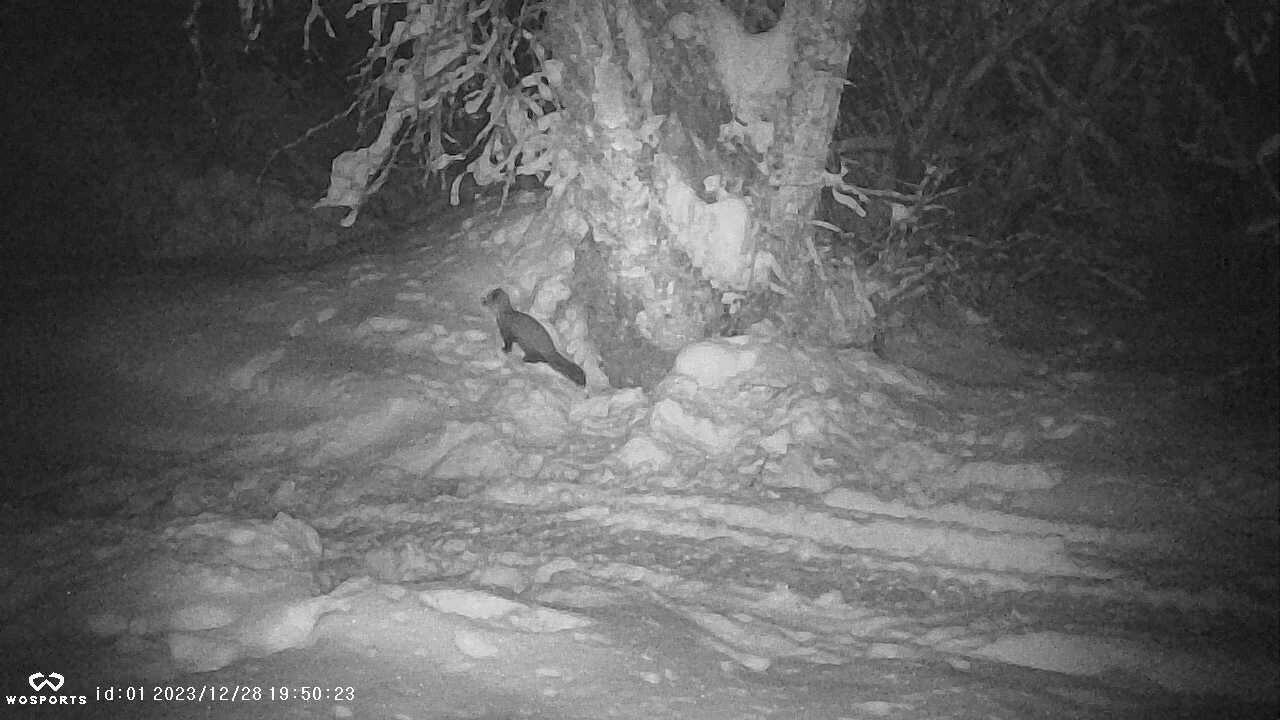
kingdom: Animalia
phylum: Chordata
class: Mammalia
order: Carnivora
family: Mustelidae
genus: Martes
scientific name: Martes americana
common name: American marten
